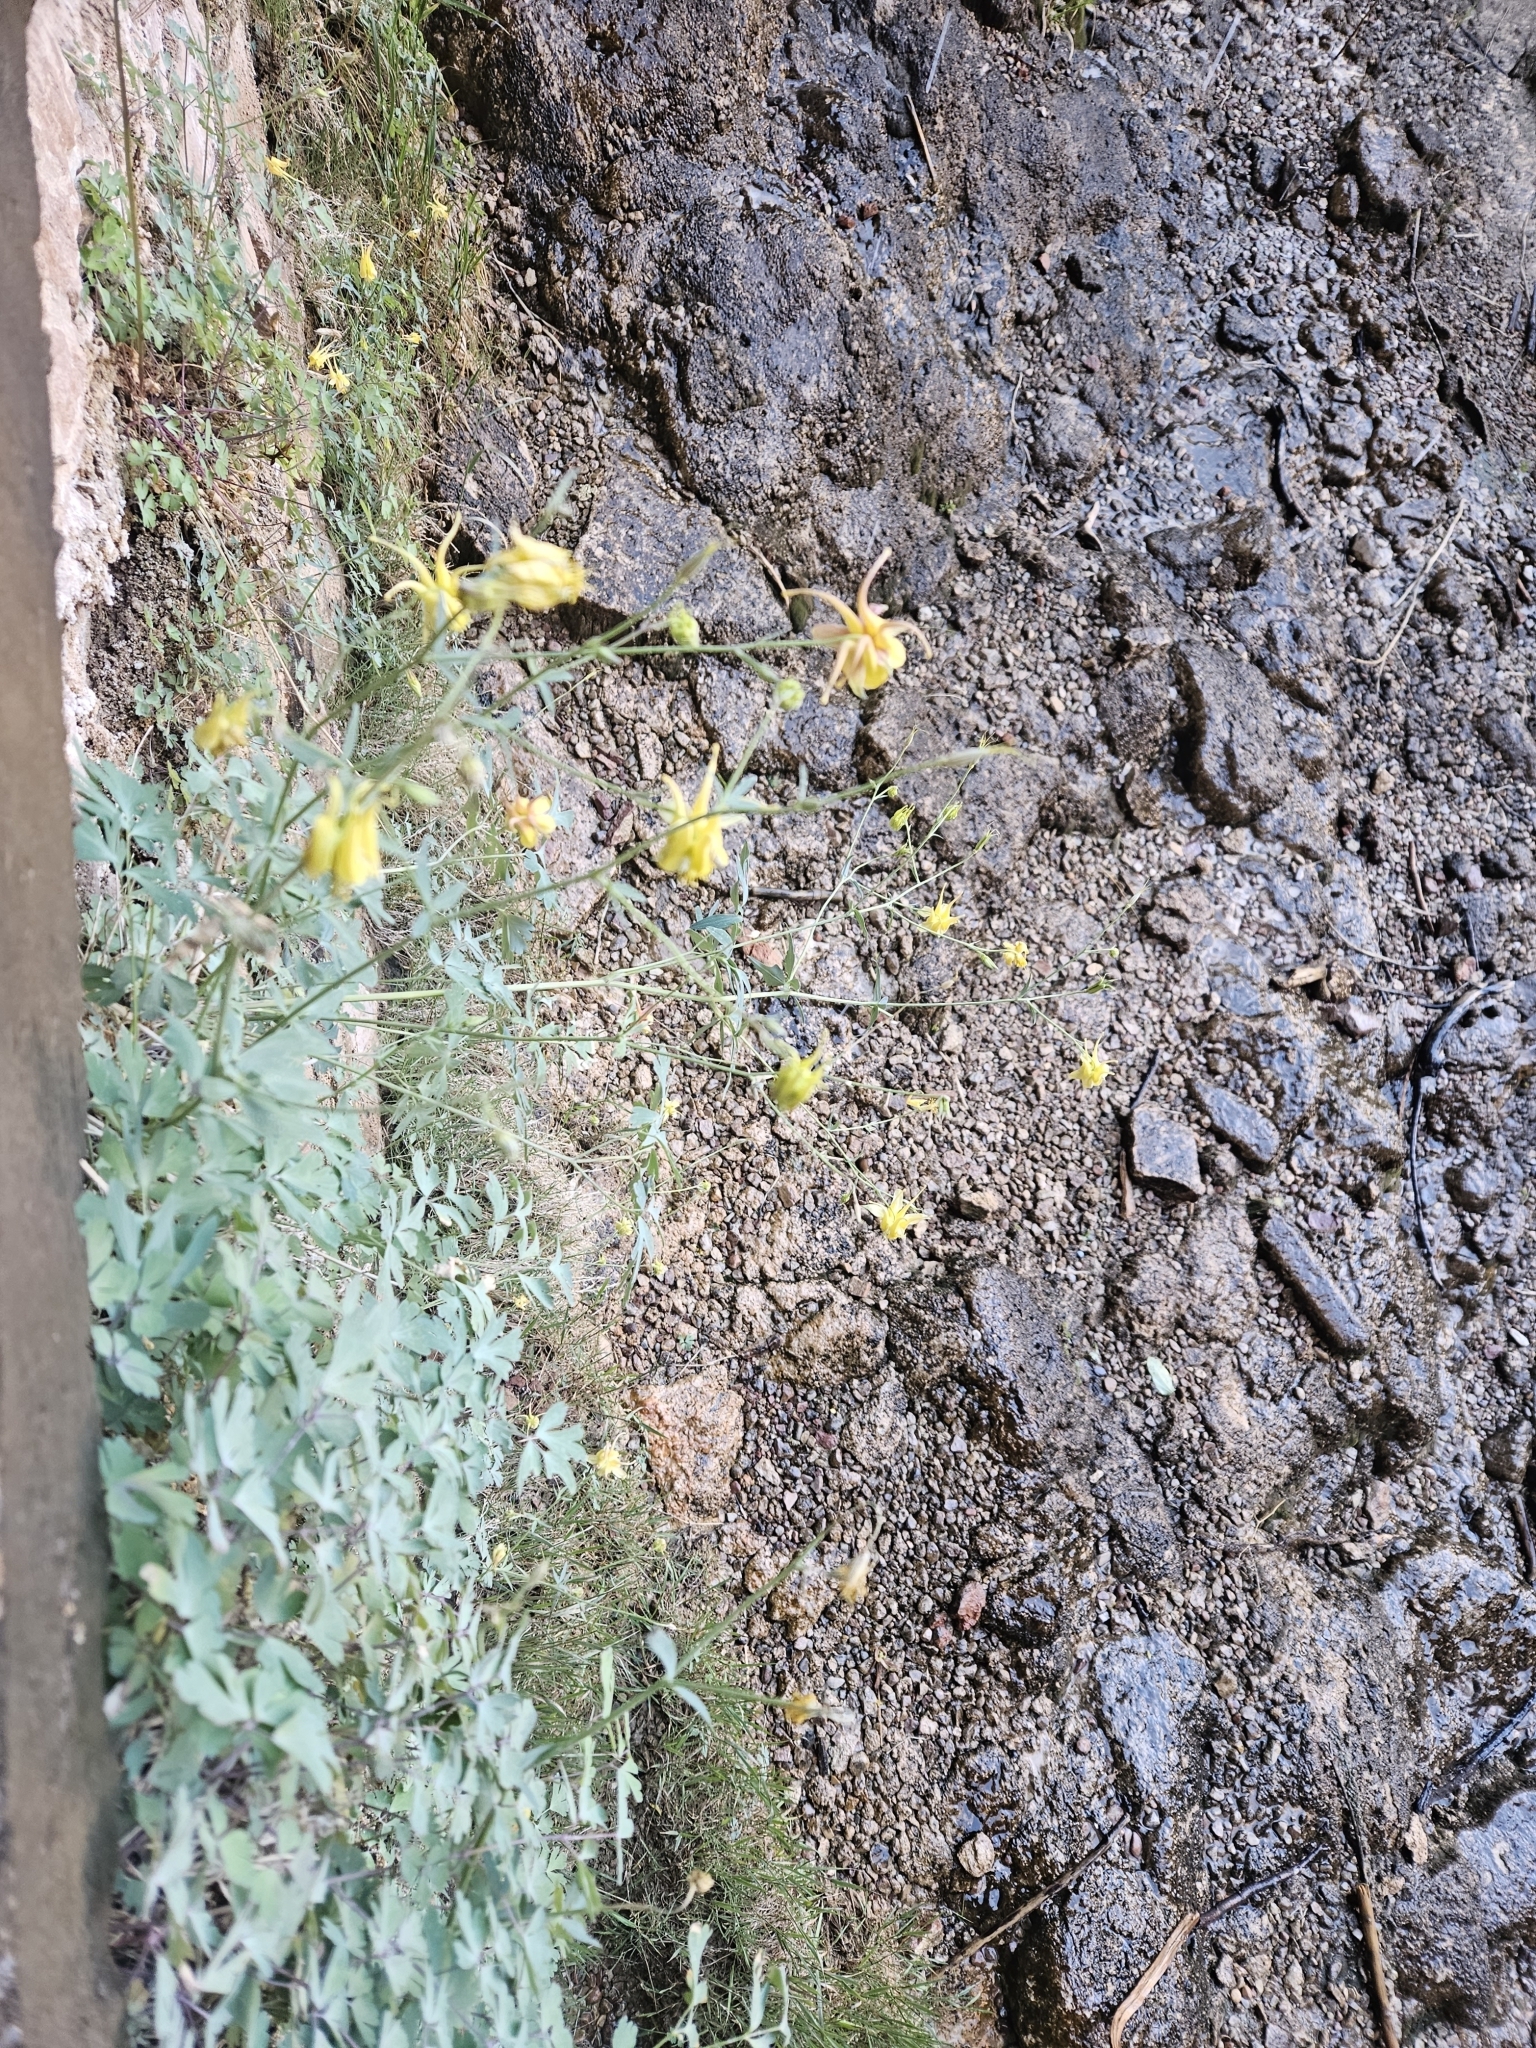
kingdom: Plantae
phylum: Tracheophyta
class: Magnoliopsida
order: Ranunculales
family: Ranunculaceae
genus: Aquilegia
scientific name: Aquilegia chrysantha
